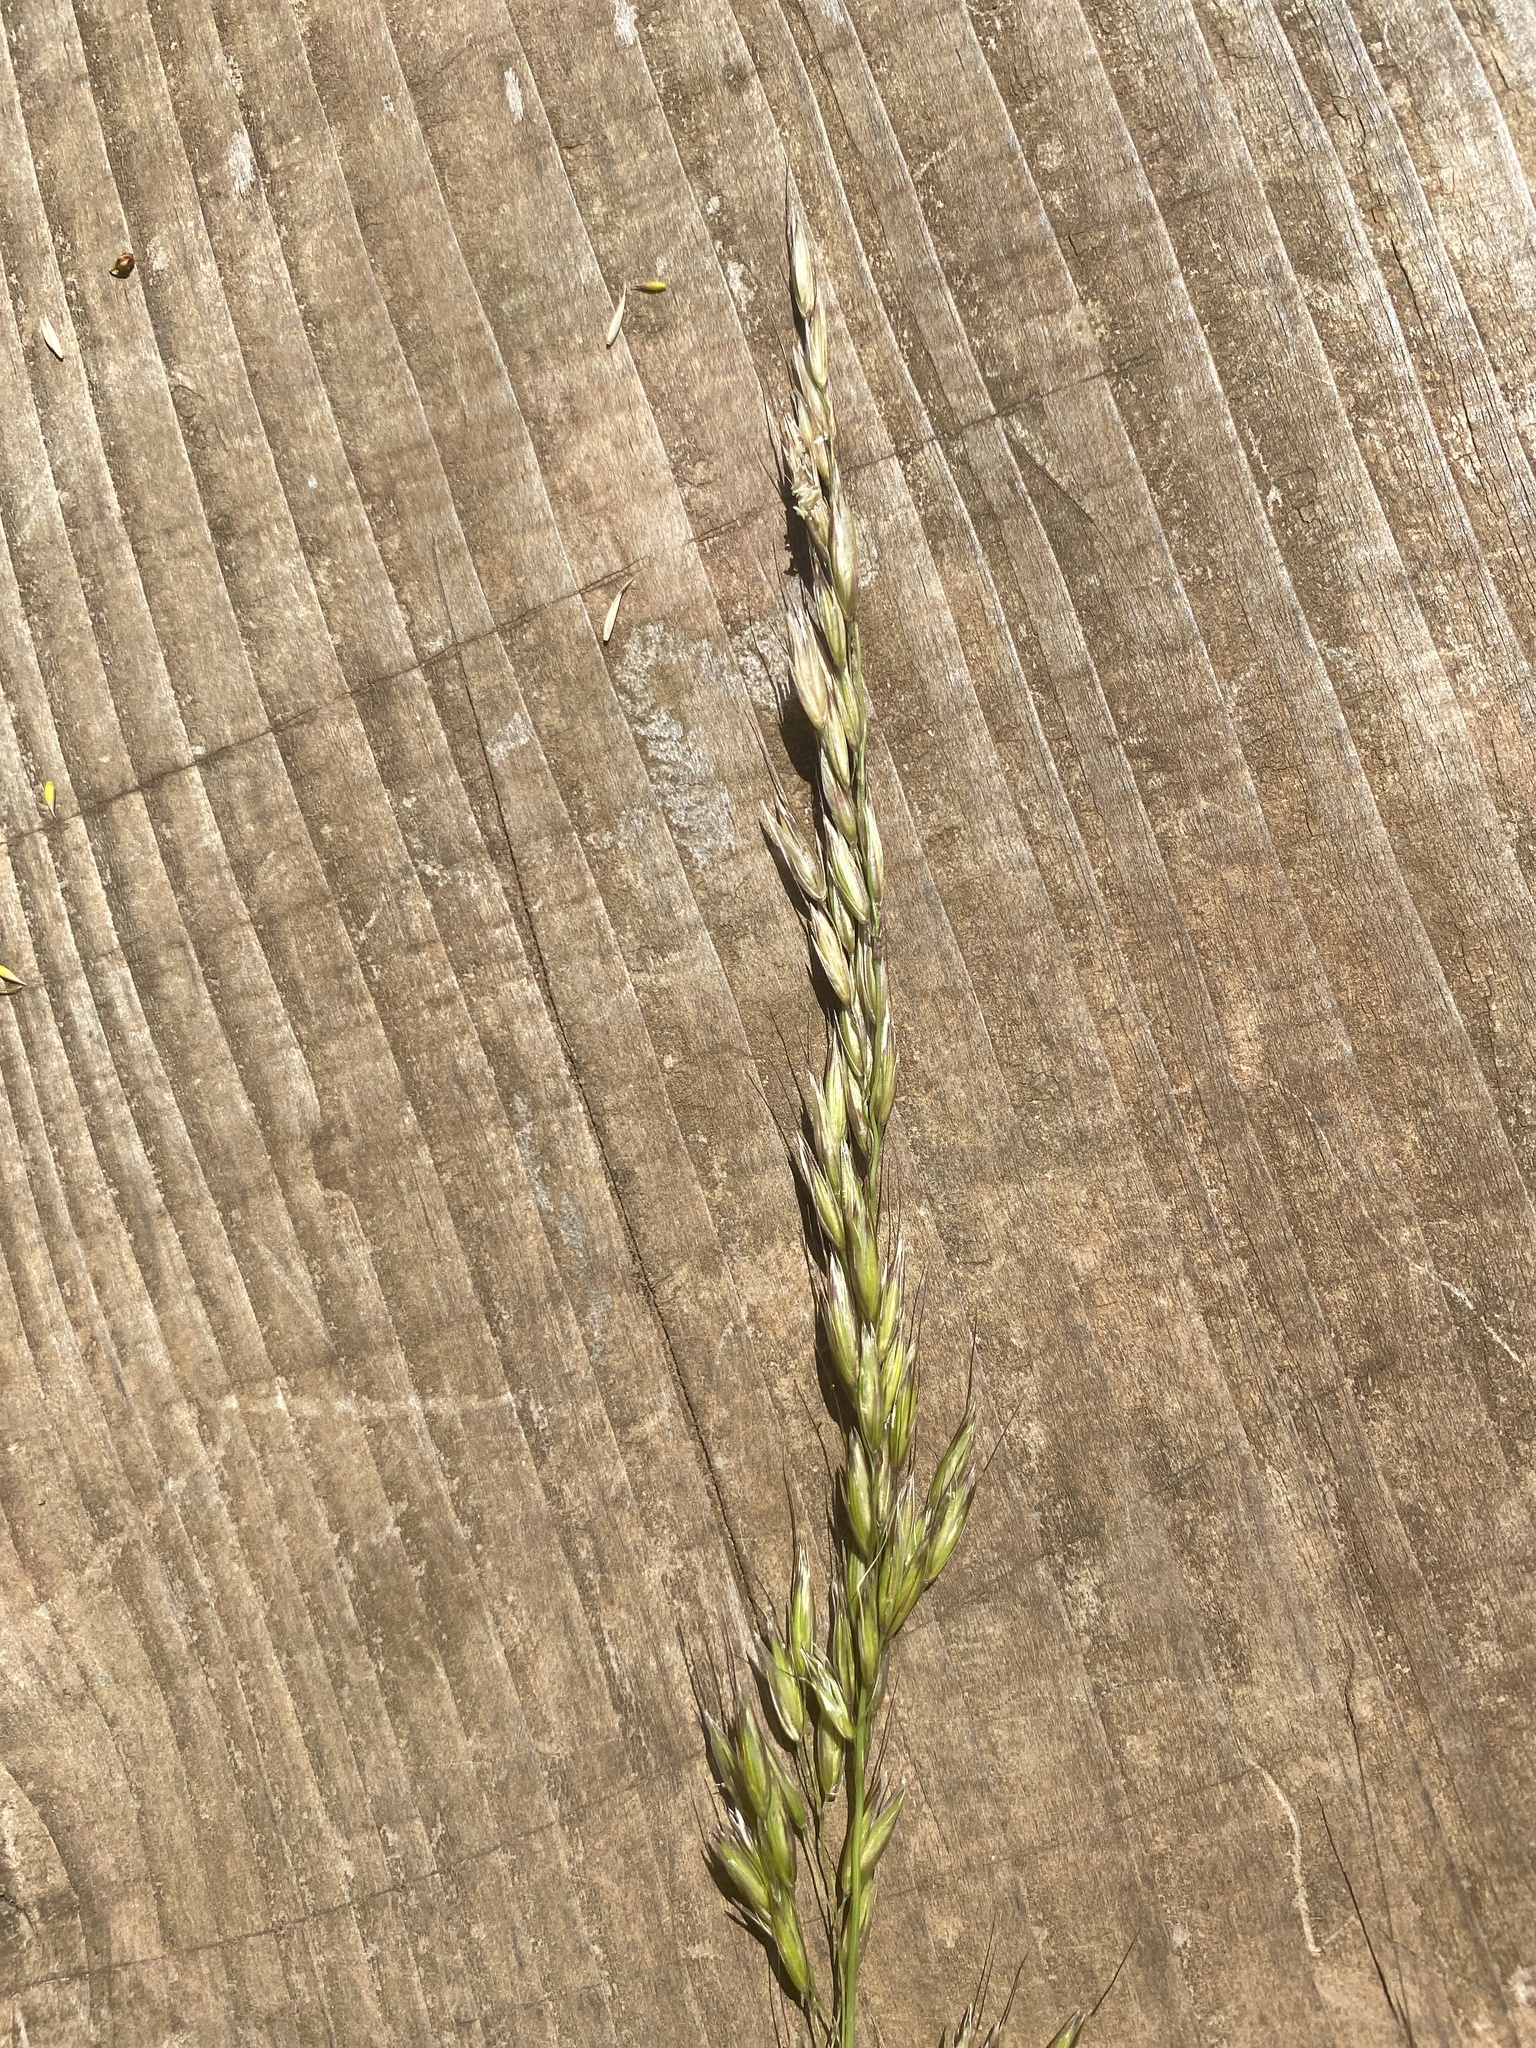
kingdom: Plantae
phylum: Tracheophyta
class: Liliopsida
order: Poales
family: Poaceae
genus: Arrhenatherum
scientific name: Arrhenatherum elatius
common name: Tall oatgrass
